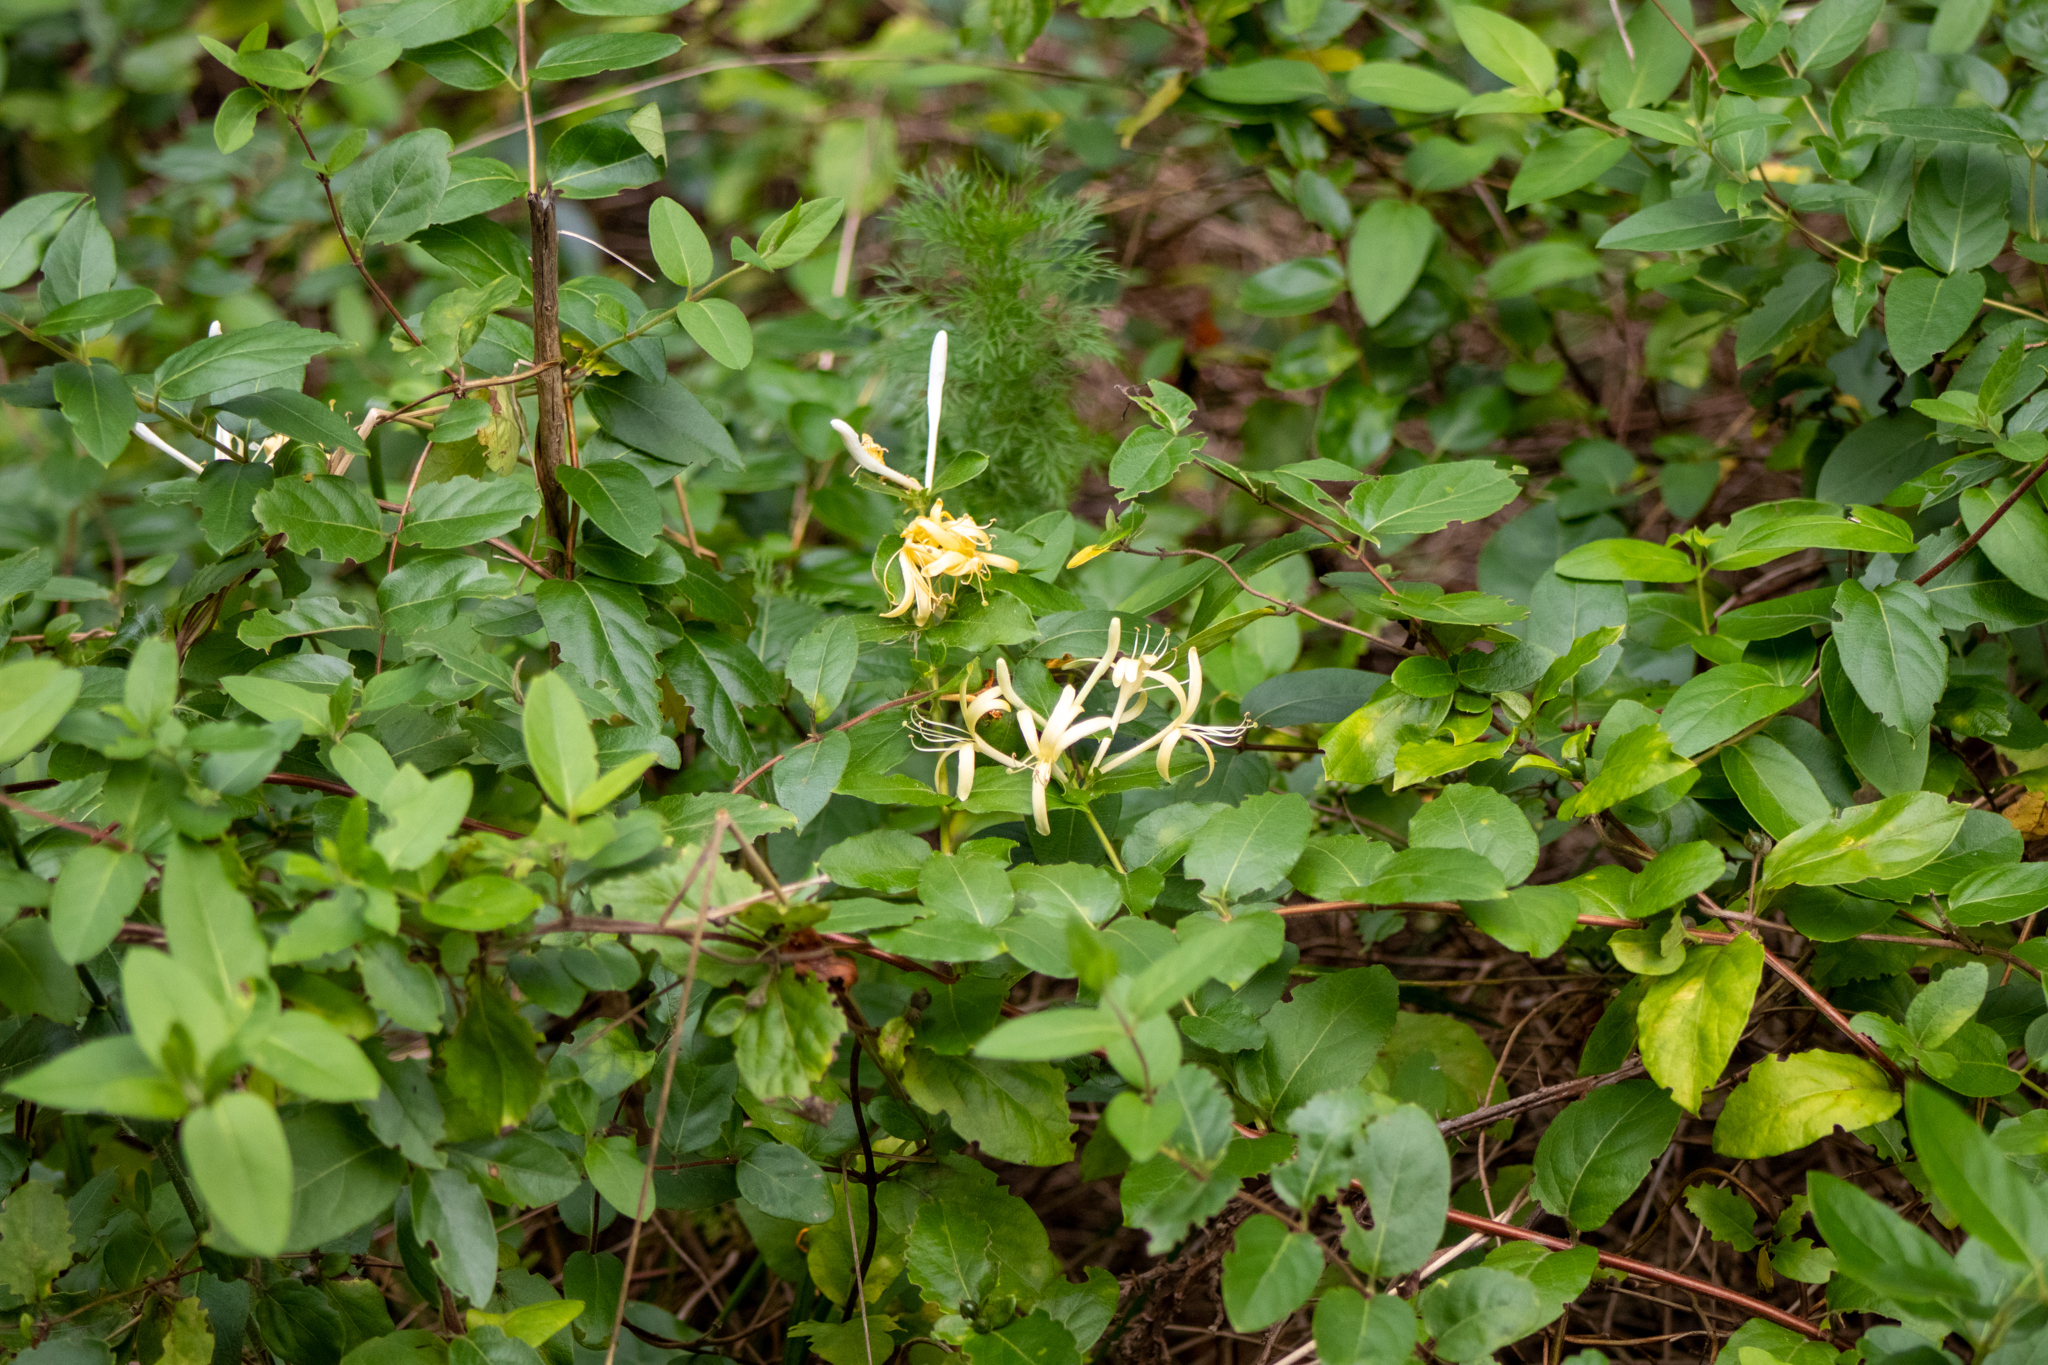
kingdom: Plantae
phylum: Tracheophyta
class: Magnoliopsida
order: Dipsacales
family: Caprifoliaceae
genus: Lonicera
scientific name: Lonicera japonica
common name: Japanese honeysuckle
